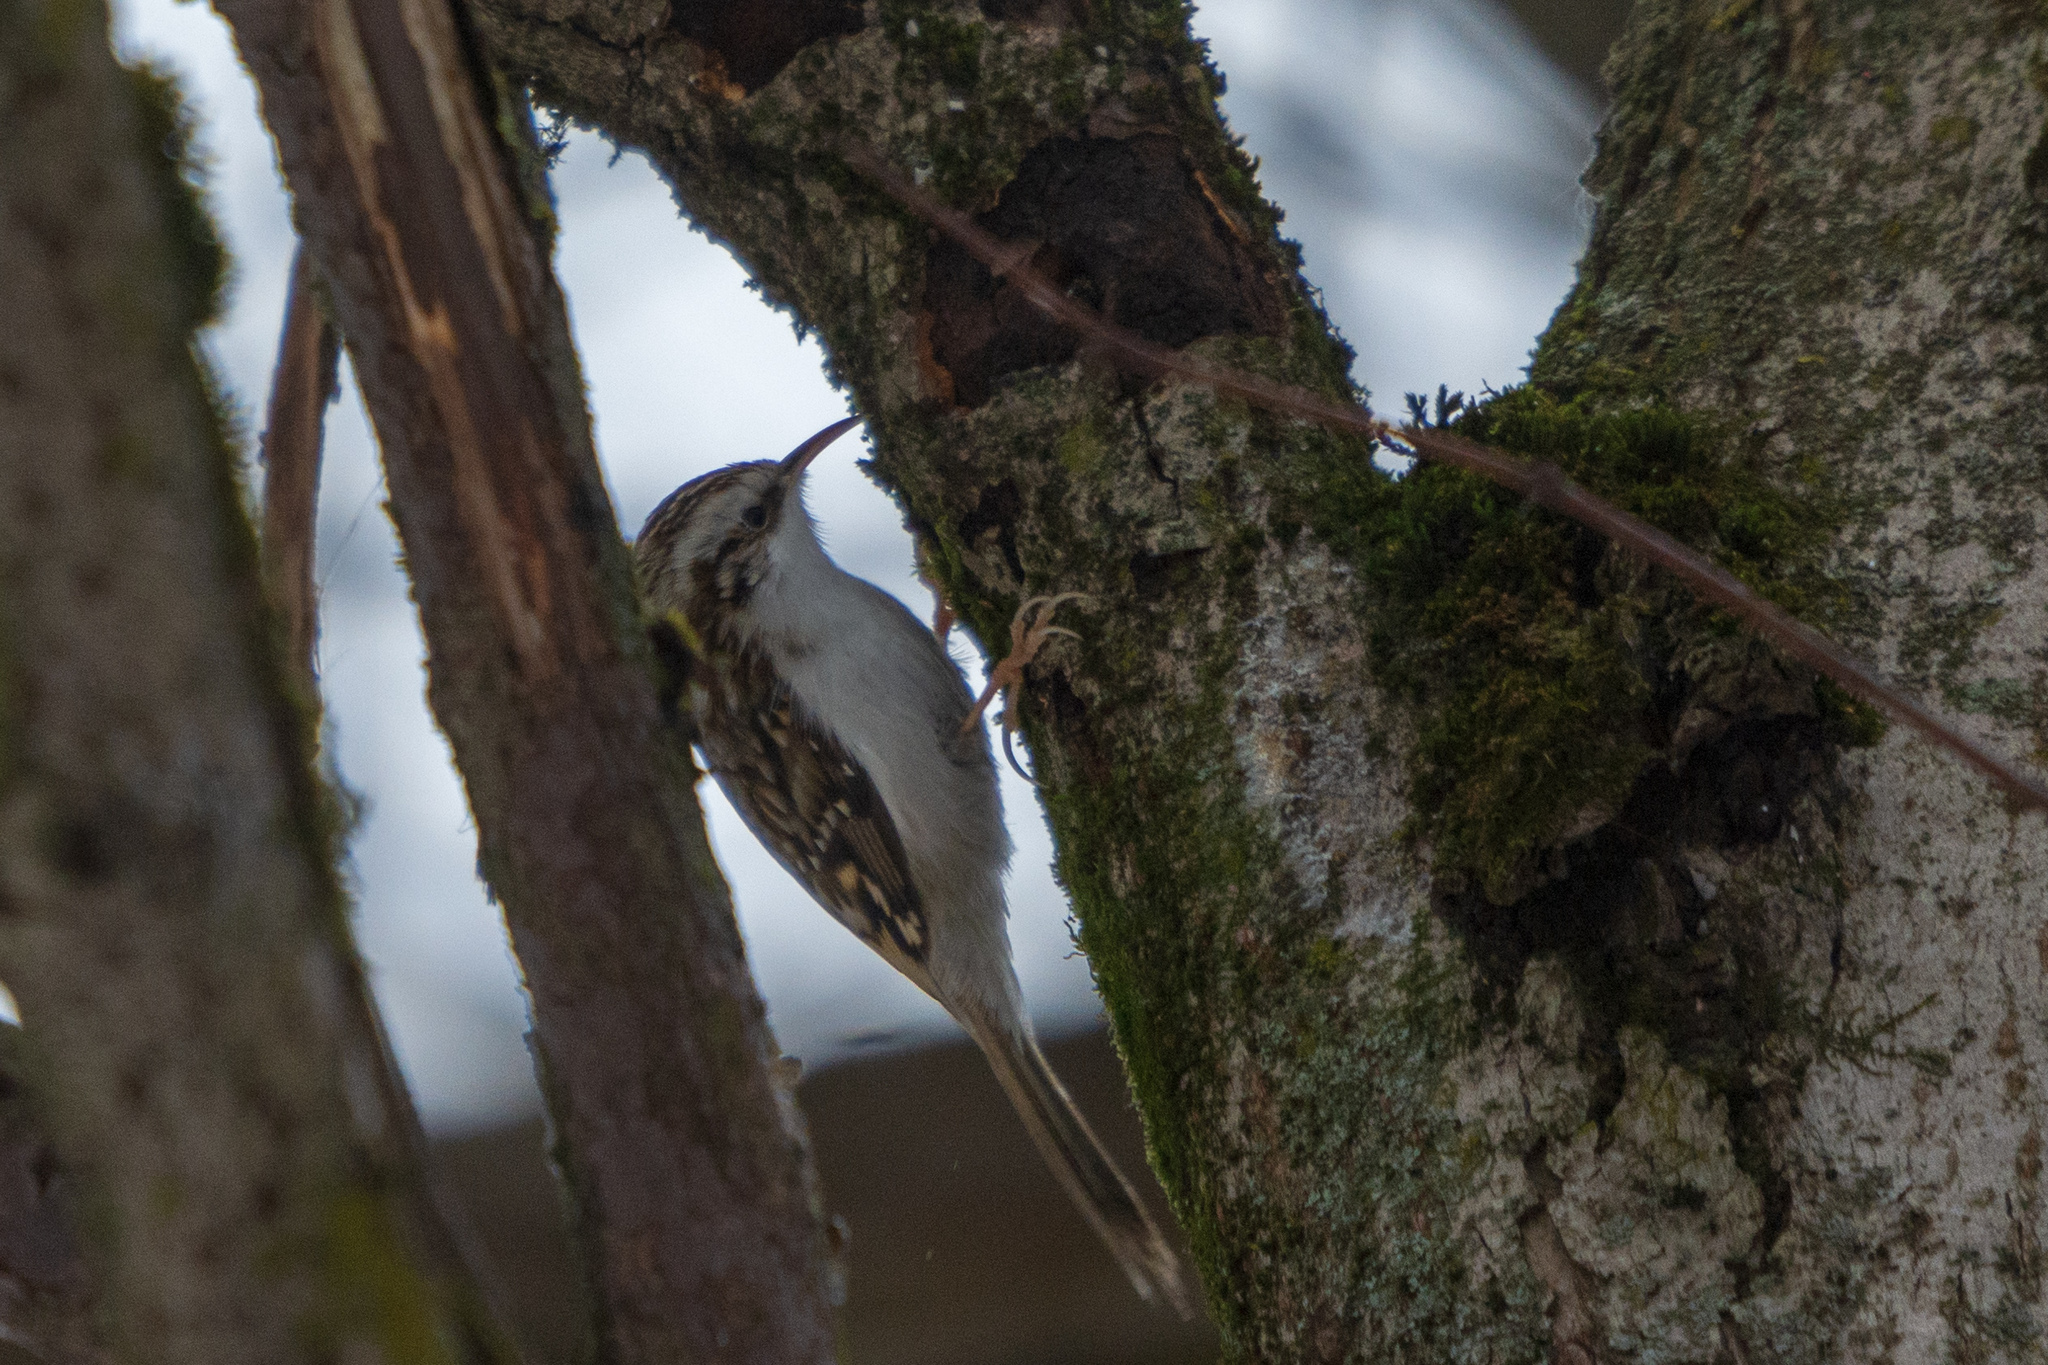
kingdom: Animalia
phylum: Chordata
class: Aves
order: Passeriformes
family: Certhiidae
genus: Certhia
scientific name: Certhia familiaris
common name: Eurasian treecreeper
